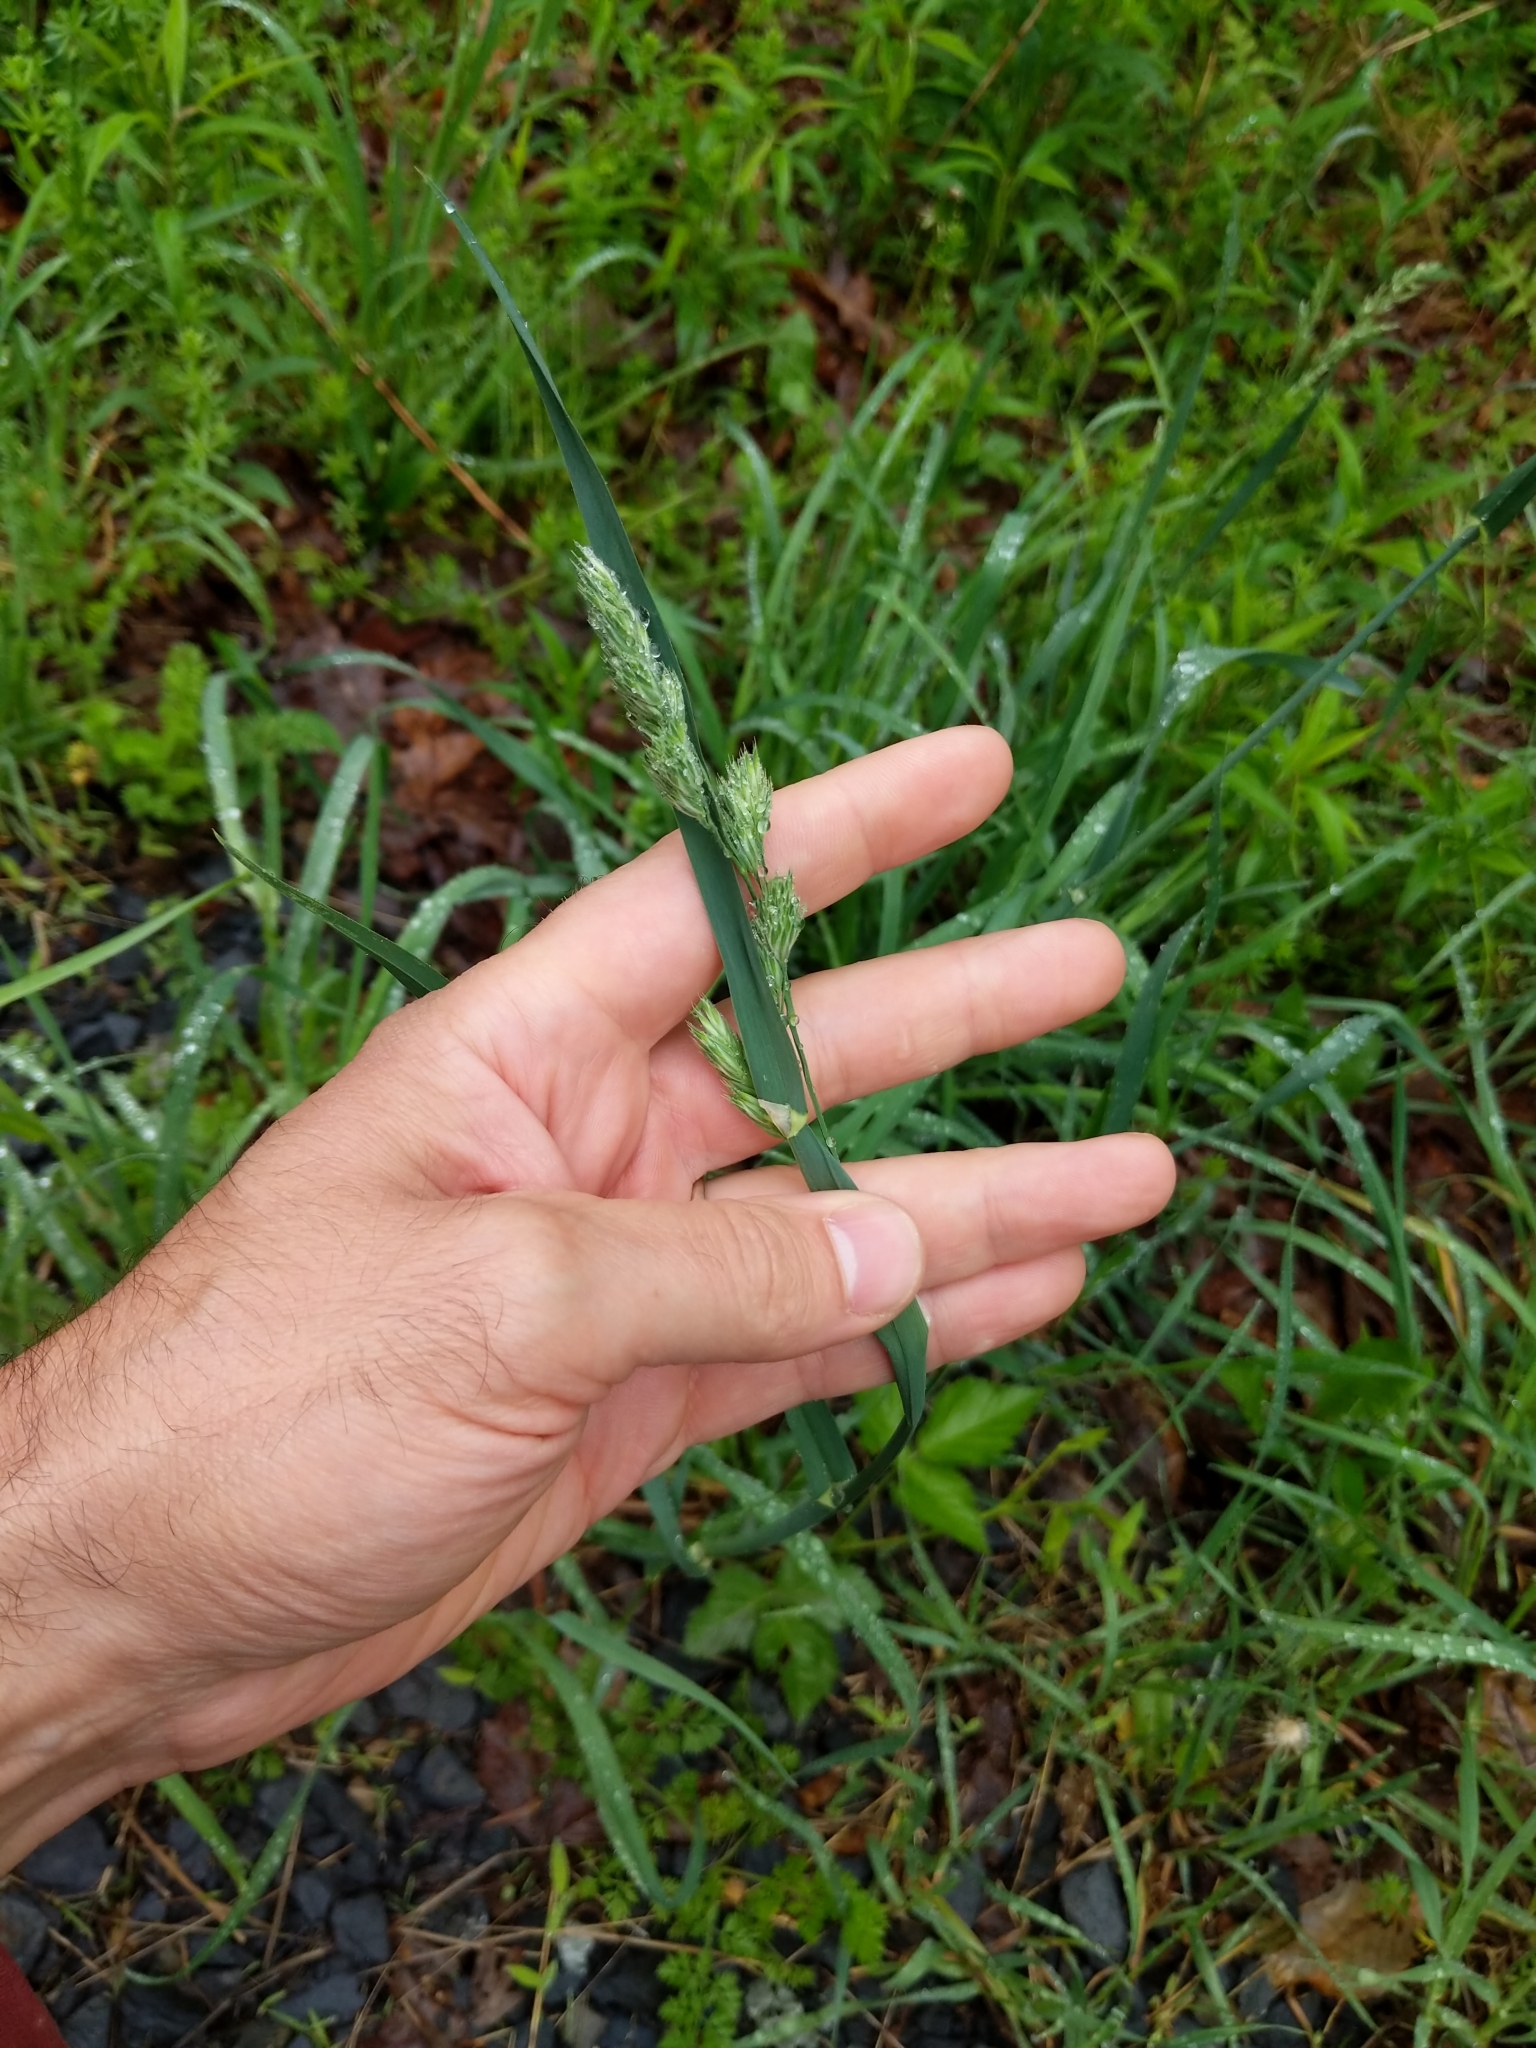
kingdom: Plantae
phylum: Tracheophyta
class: Liliopsida
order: Poales
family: Poaceae
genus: Dactylis
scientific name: Dactylis glomerata
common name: Orchardgrass
